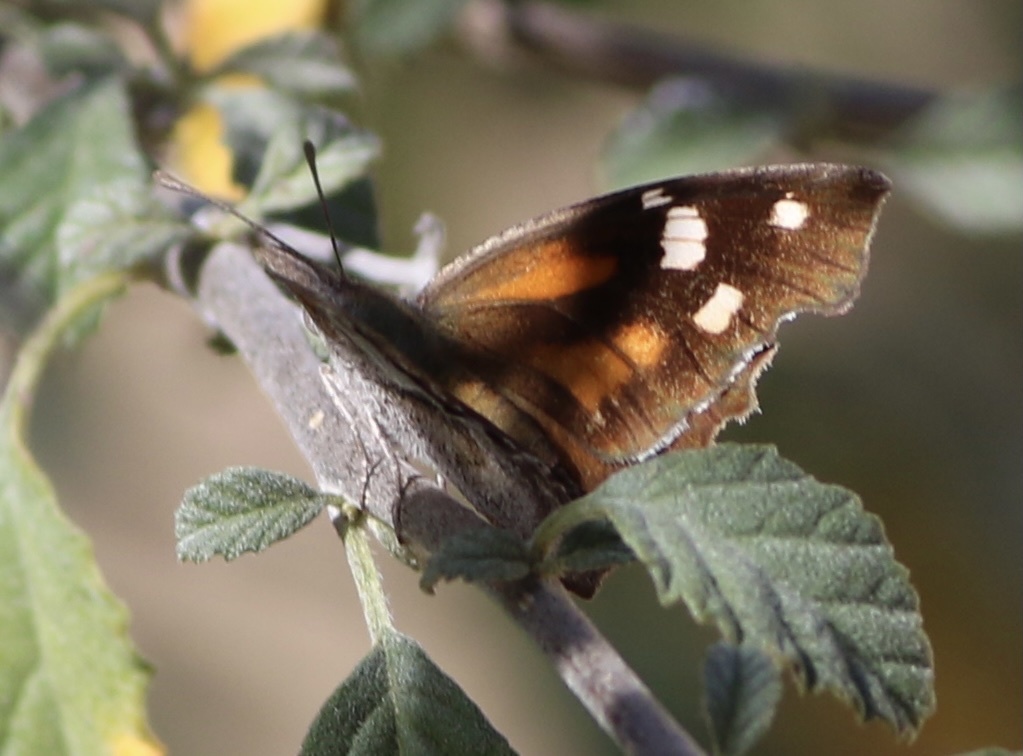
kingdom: Animalia
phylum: Arthropoda
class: Insecta
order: Lepidoptera
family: Nymphalidae
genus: Libytheana
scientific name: Libytheana carinenta
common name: American snout
